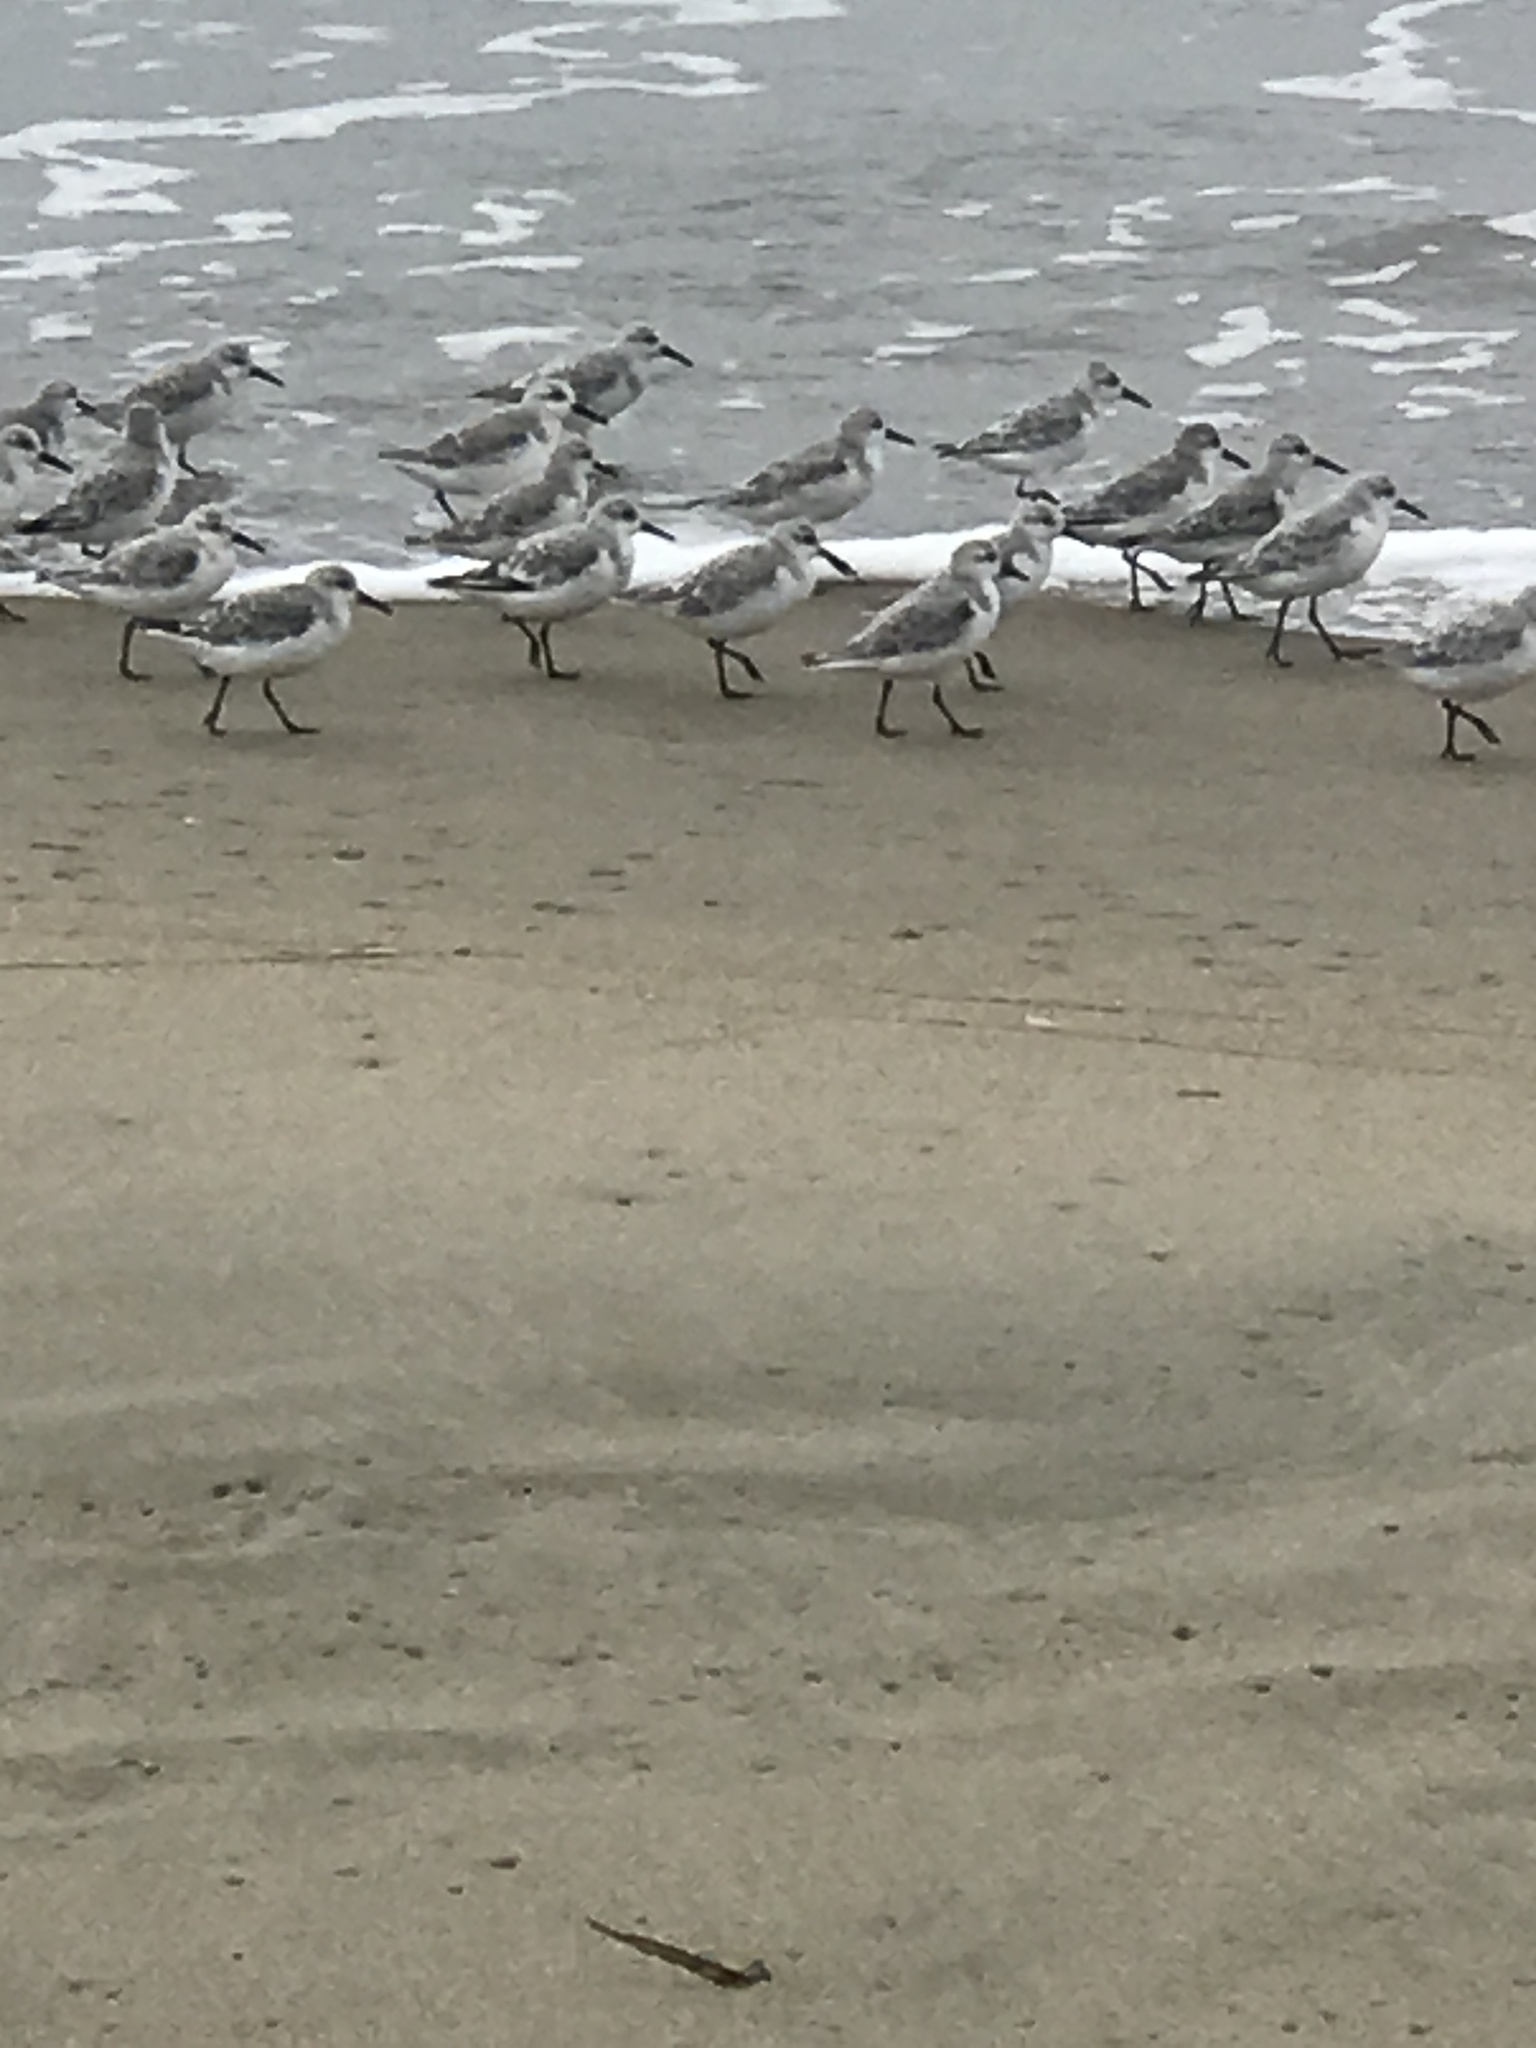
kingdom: Animalia
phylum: Chordata
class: Aves
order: Charadriiformes
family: Scolopacidae
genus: Calidris
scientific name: Calidris alba
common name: Sanderling
